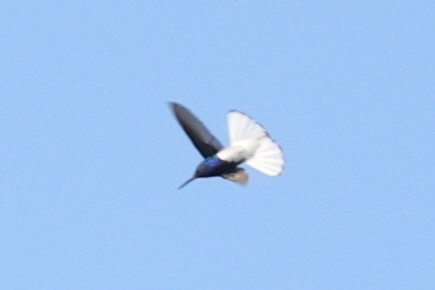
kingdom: Animalia
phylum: Chordata
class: Aves
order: Apodiformes
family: Trochilidae
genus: Florisuga
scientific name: Florisuga mellivora
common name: White-necked jacobin
